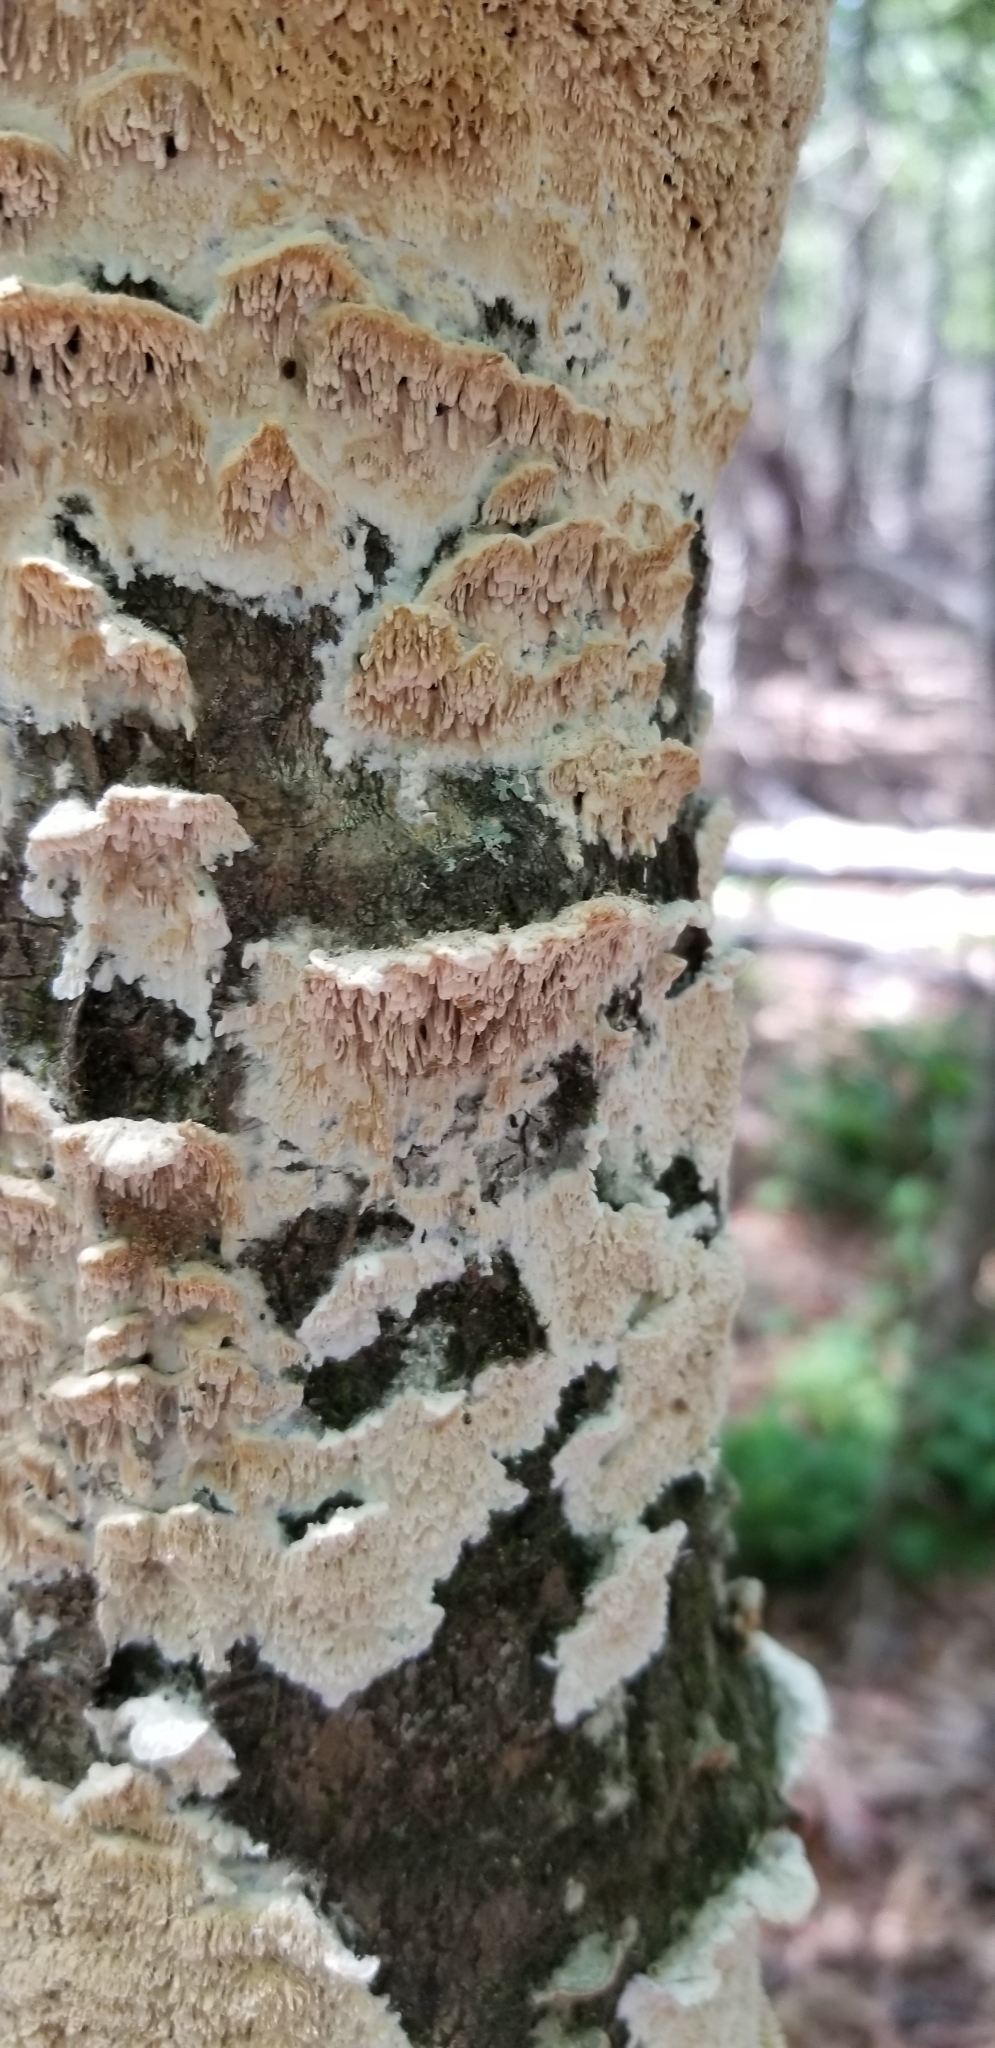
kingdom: Fungi
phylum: Basidiomycota
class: Agaricomycetes
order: Polyporales
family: Irpicaceae
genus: Irpex
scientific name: Irpex lacteus
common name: Milk-white toothed polypore
